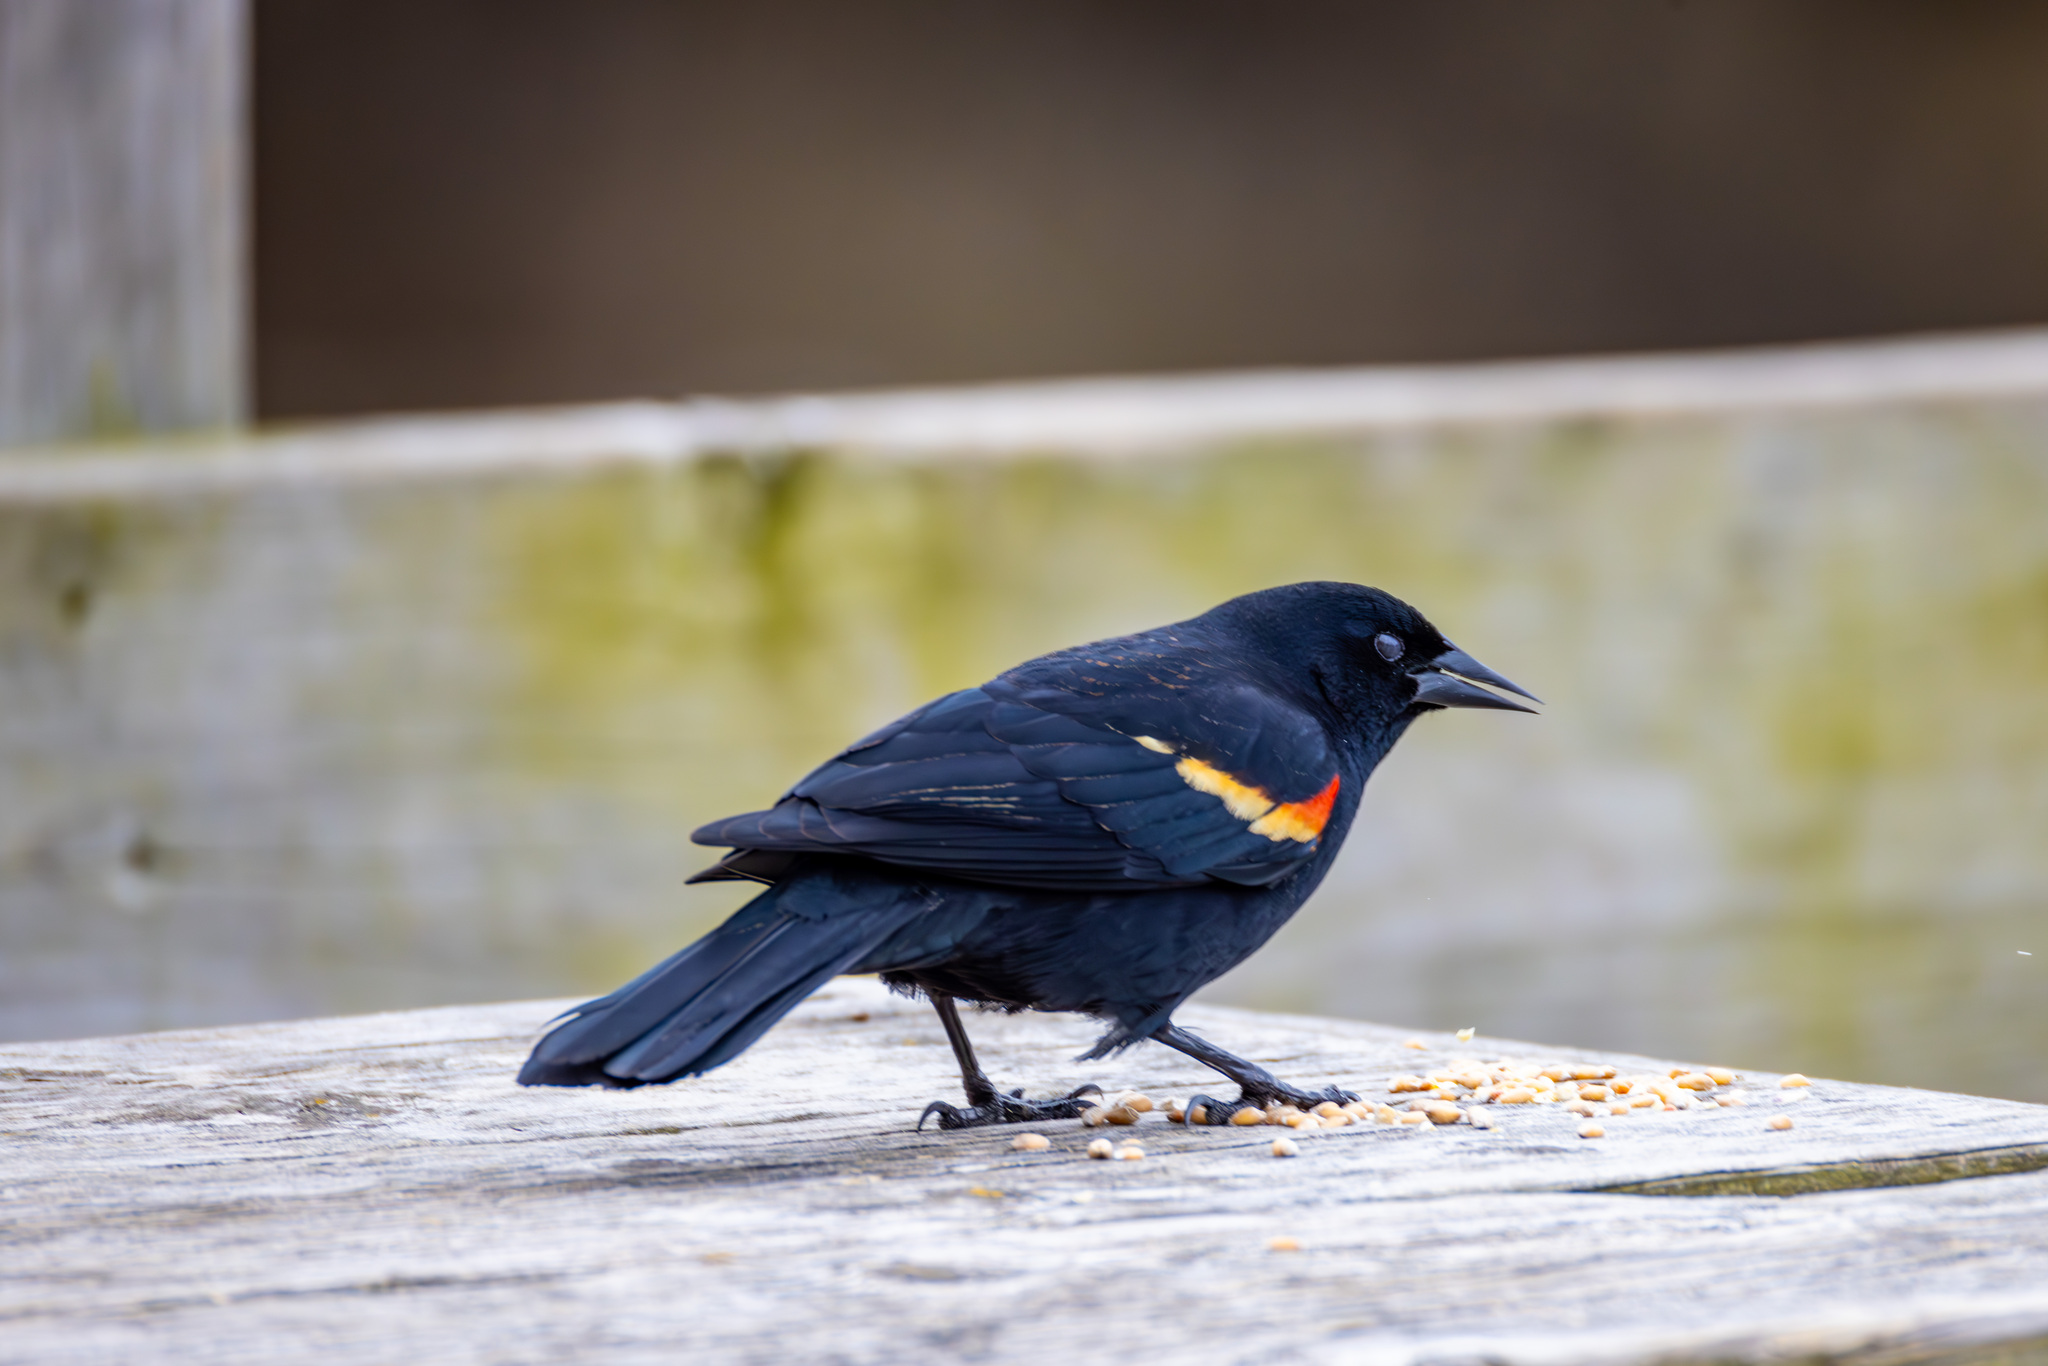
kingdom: Animalia
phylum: Chordata
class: Aves
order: Passeriformes
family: Icteridae
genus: Agelaius
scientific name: Agelaius phoeniceus
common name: Red-winged blackbird
